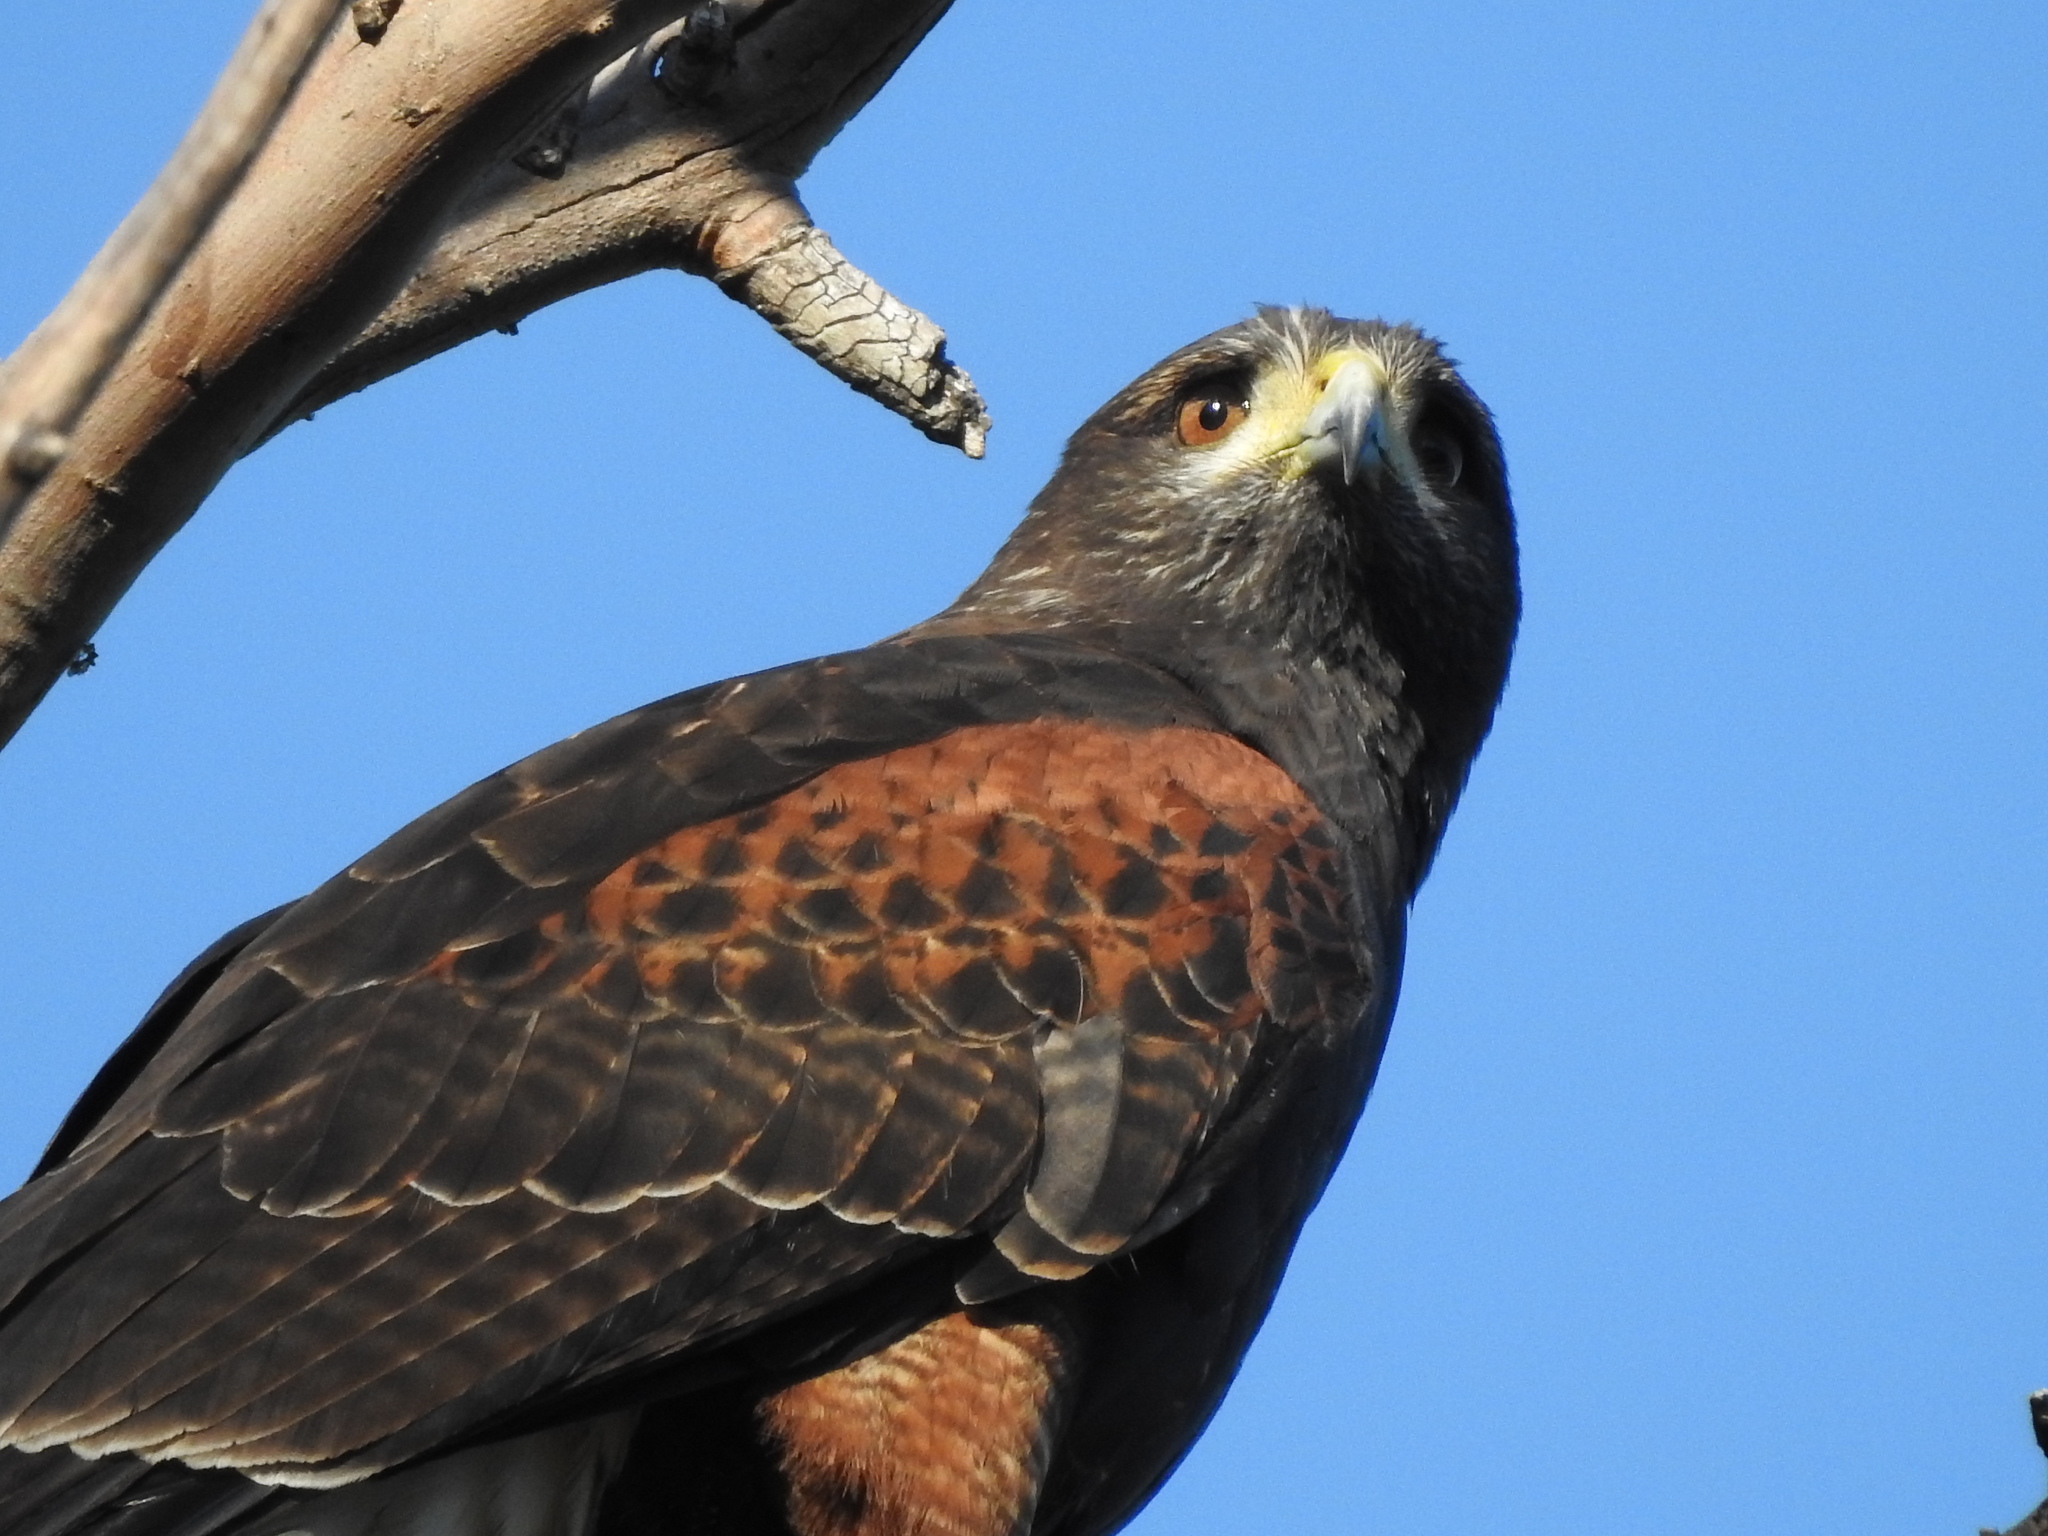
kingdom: Animalia
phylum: Chordata
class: Aves
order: Accipitriformes
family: Accipitridae
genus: Parabuteo
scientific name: Parabuteo unicinctus
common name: Harris's hawk
